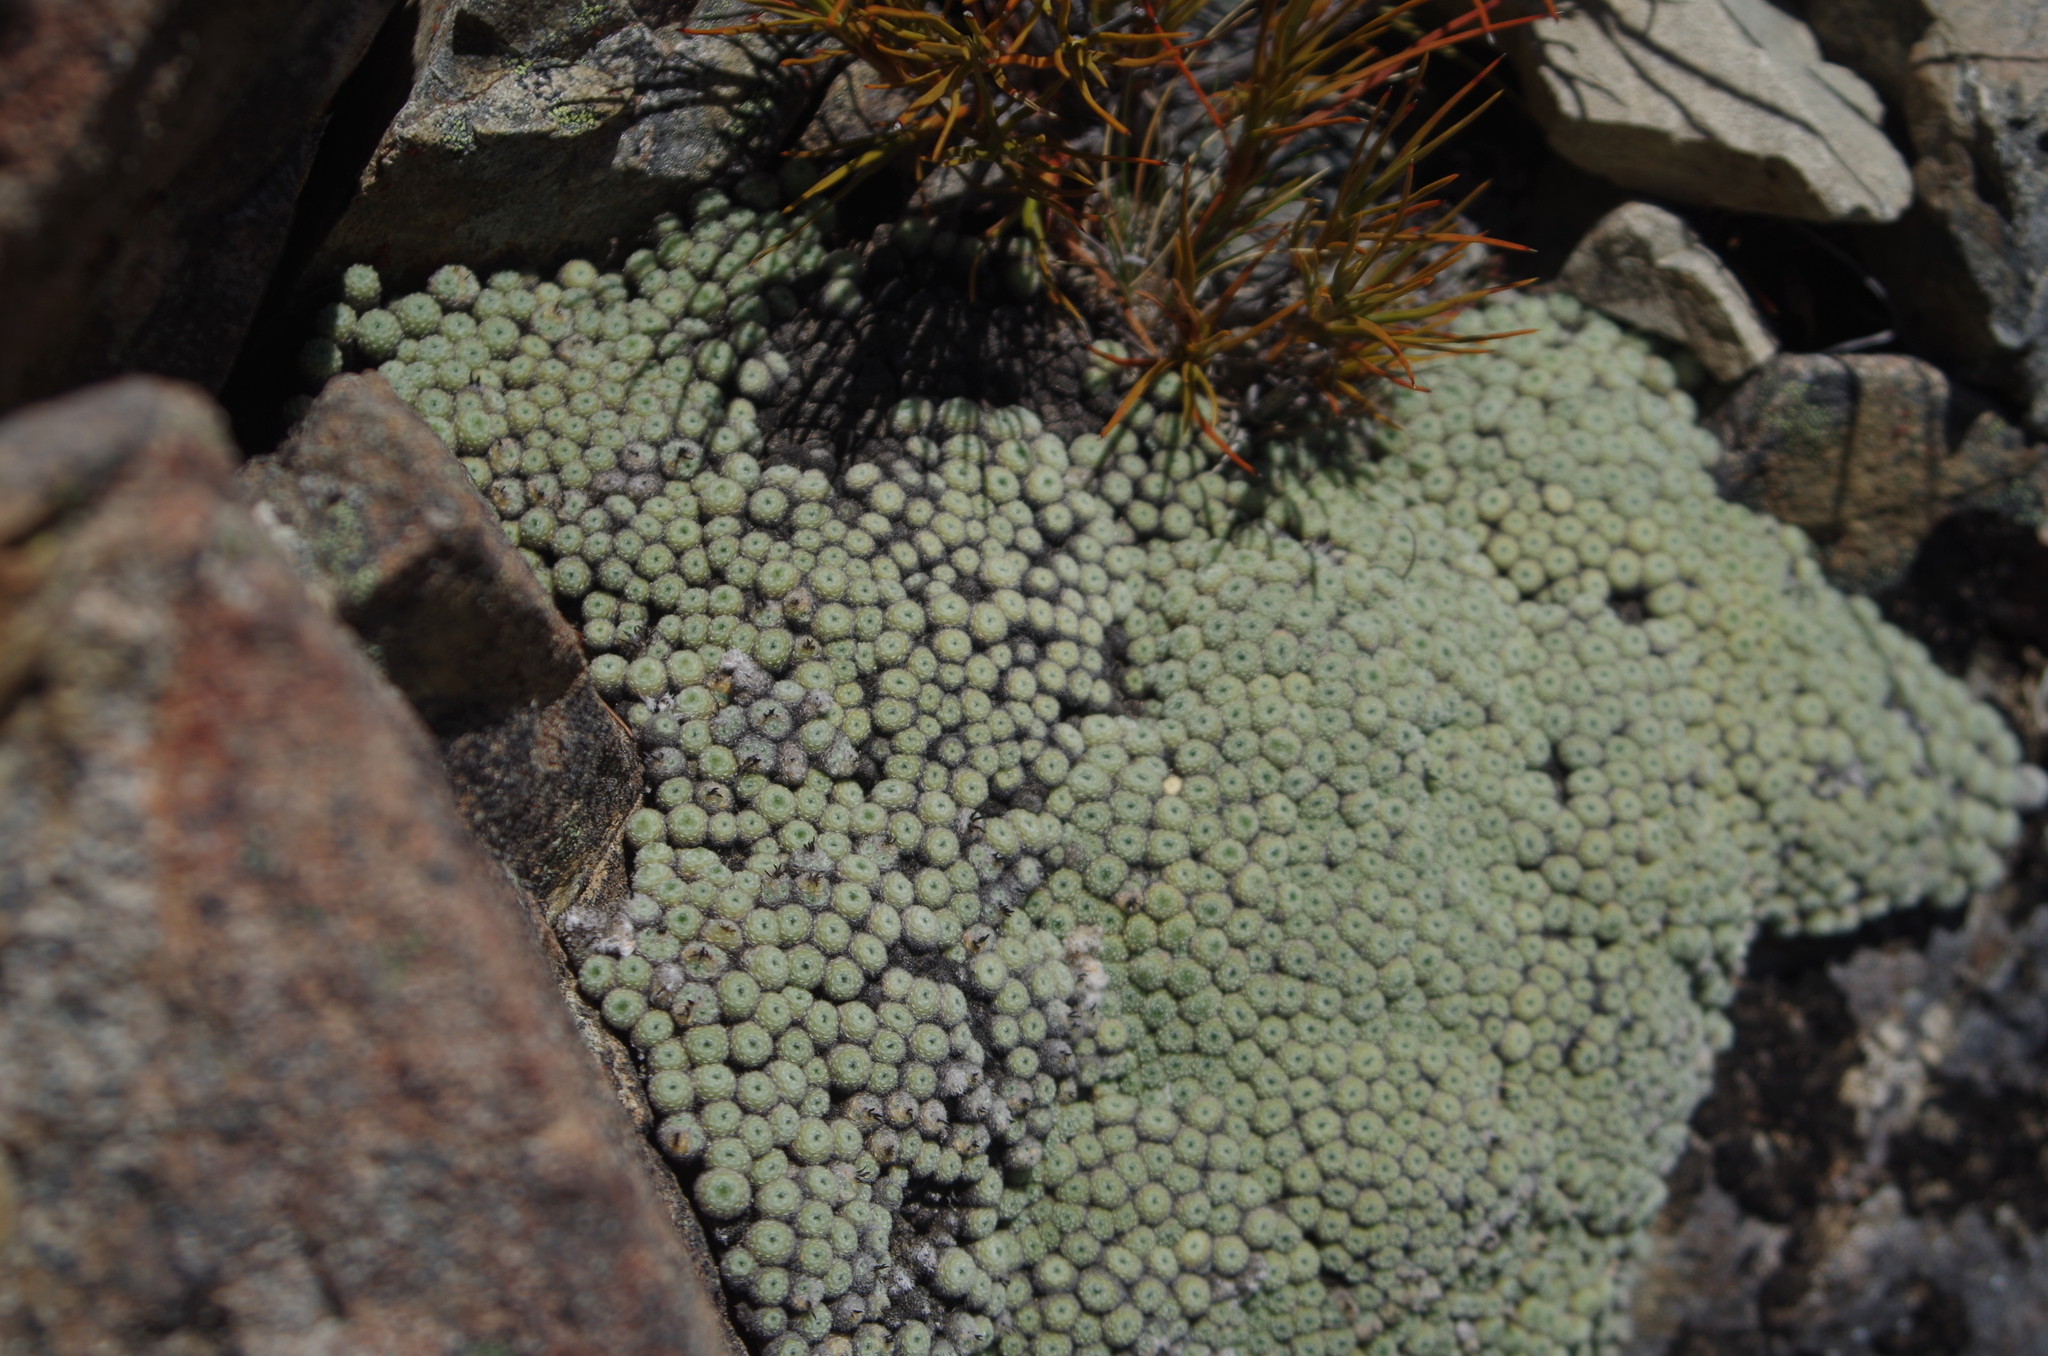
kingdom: Plantae
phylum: Tracheophyta
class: Magnoliopsida
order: Asterales
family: Asteraceae
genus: Raoulia
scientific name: Raoulia mammillaris
